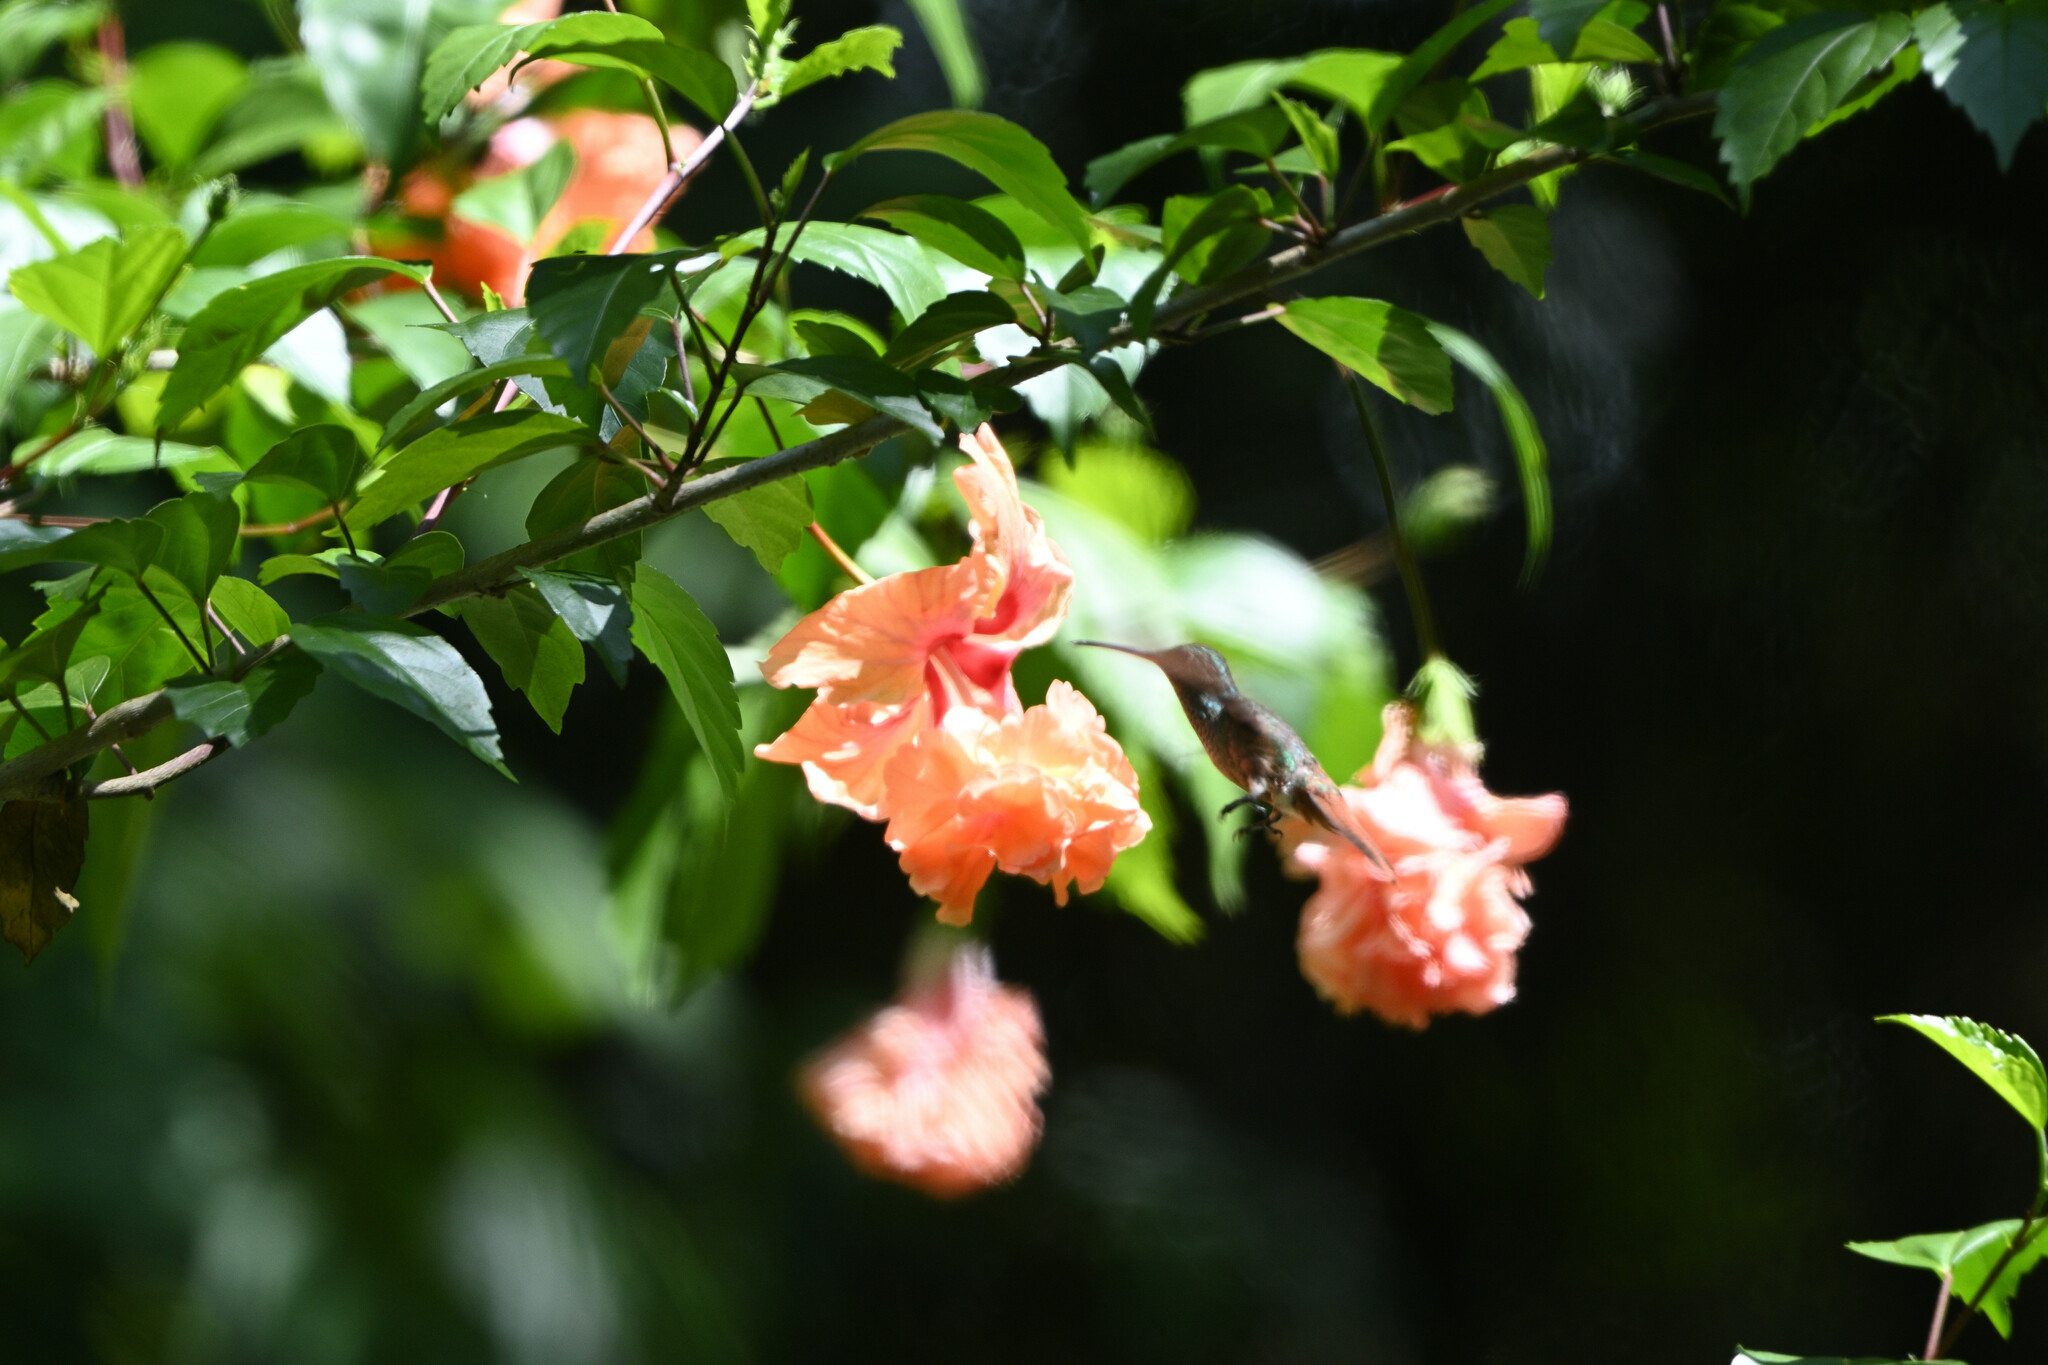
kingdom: Animalia
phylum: Chordata
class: Aves
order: Apodiformes
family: Trochilidae
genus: Amazilia
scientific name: Amazilia tzacatl
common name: Rufous-tailed hummingbird
